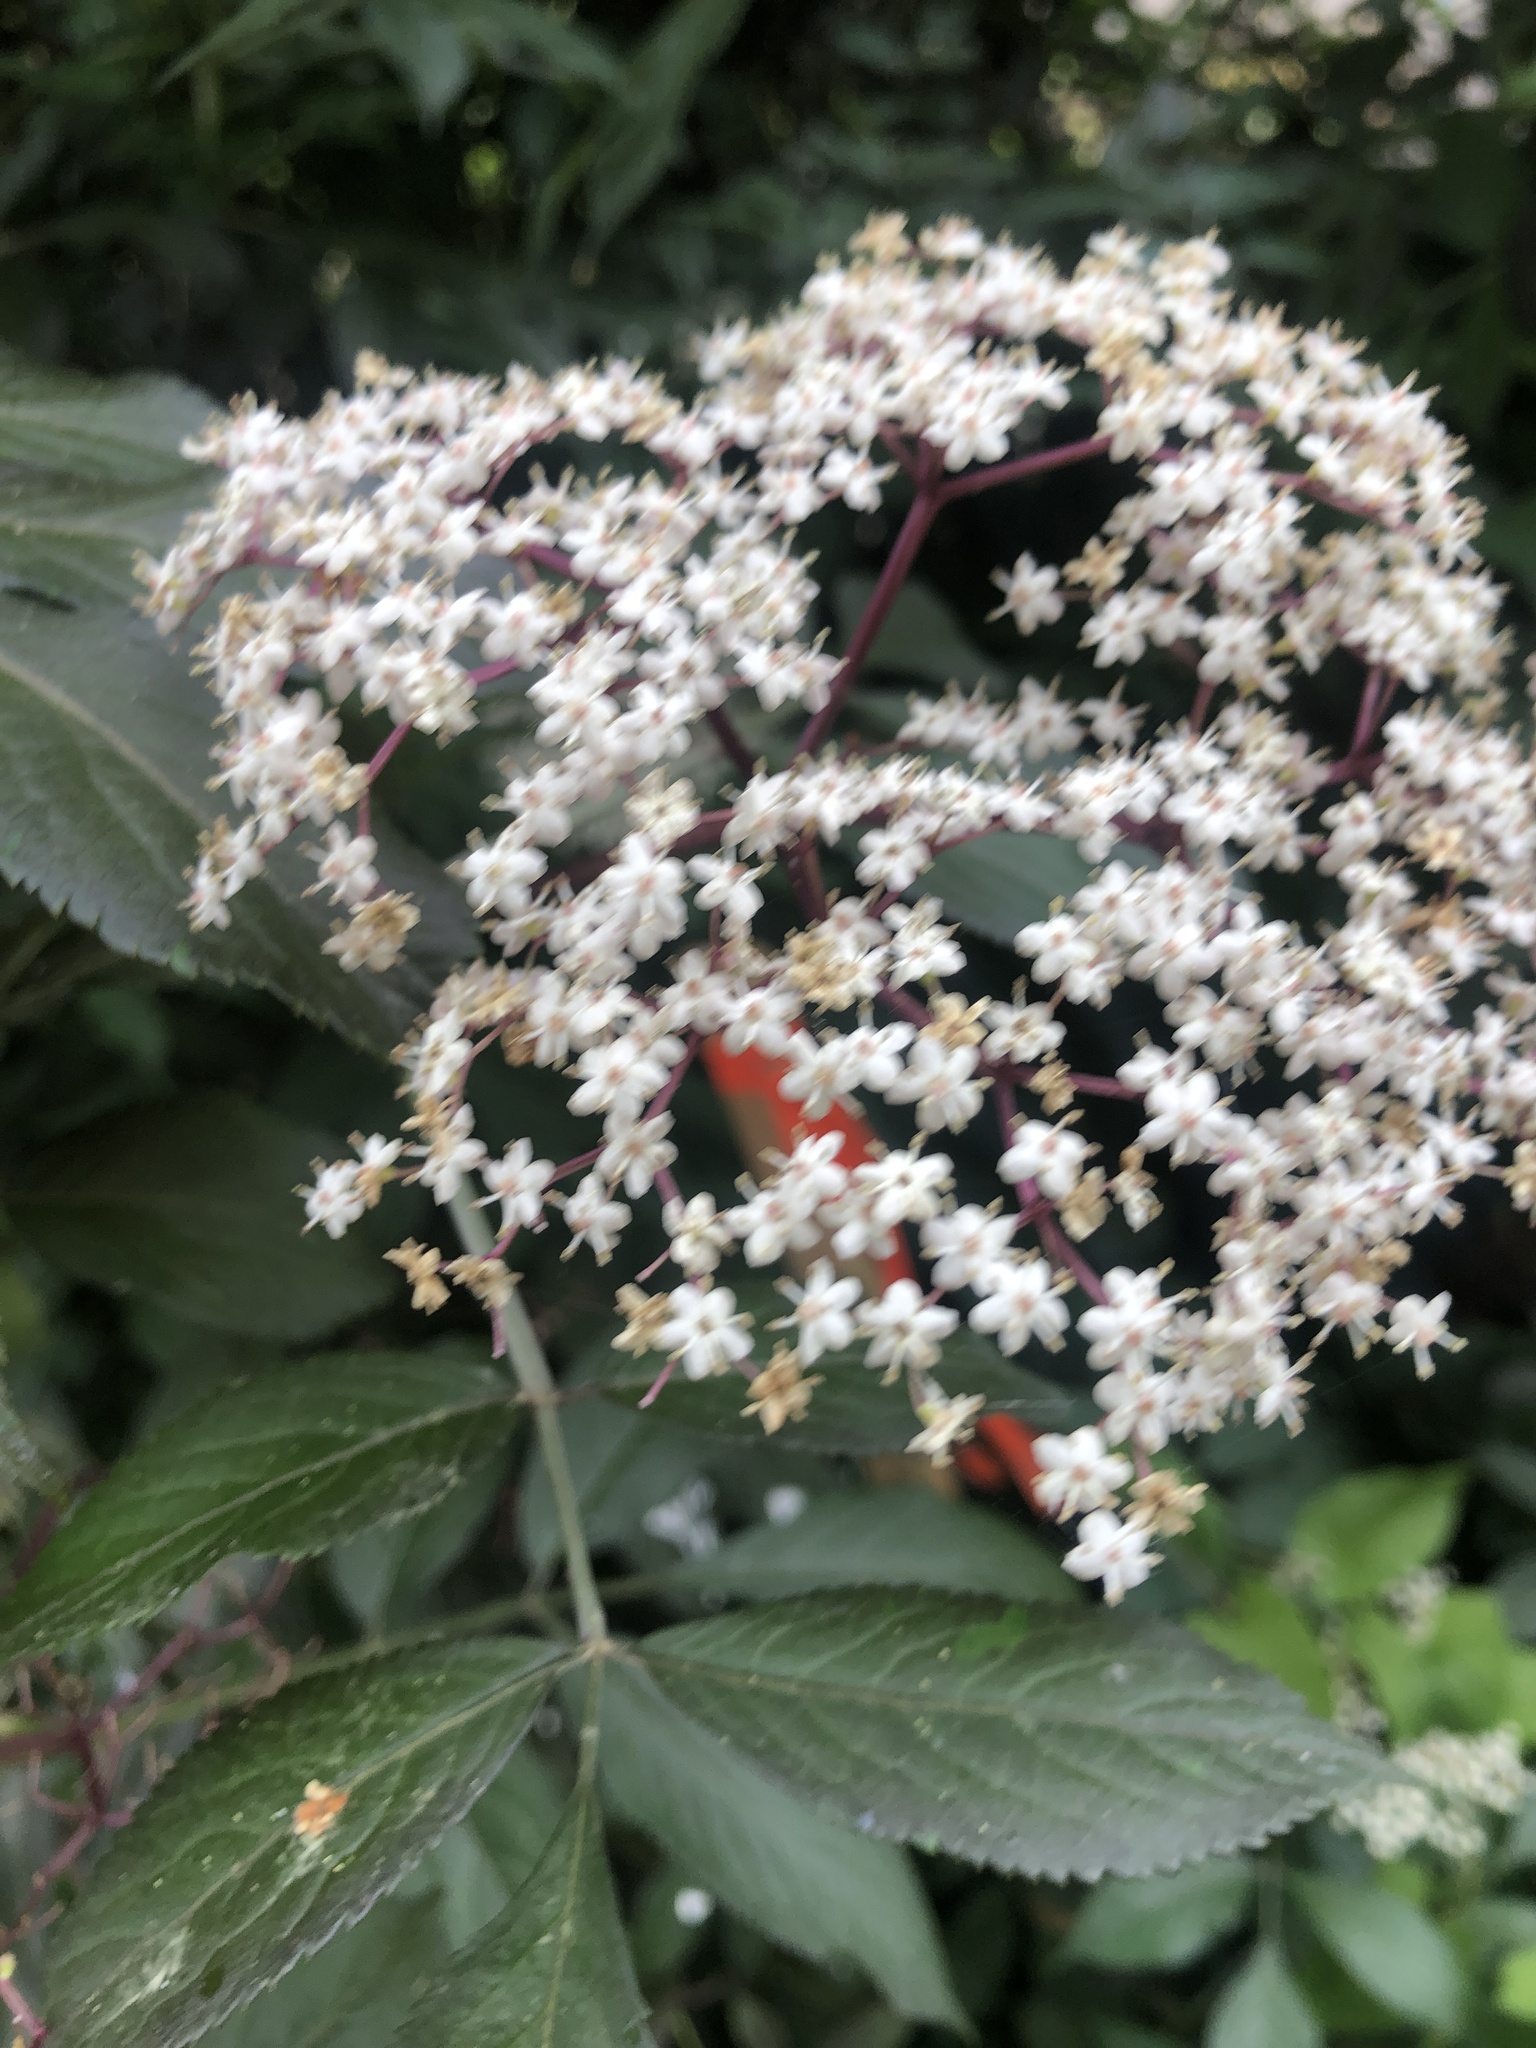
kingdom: Plantae
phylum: Tracheophyta
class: Magnoliopsida
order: Rosales
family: Rosaceae
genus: Photinia
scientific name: Photinia fraseri
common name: Fraser's photinia
